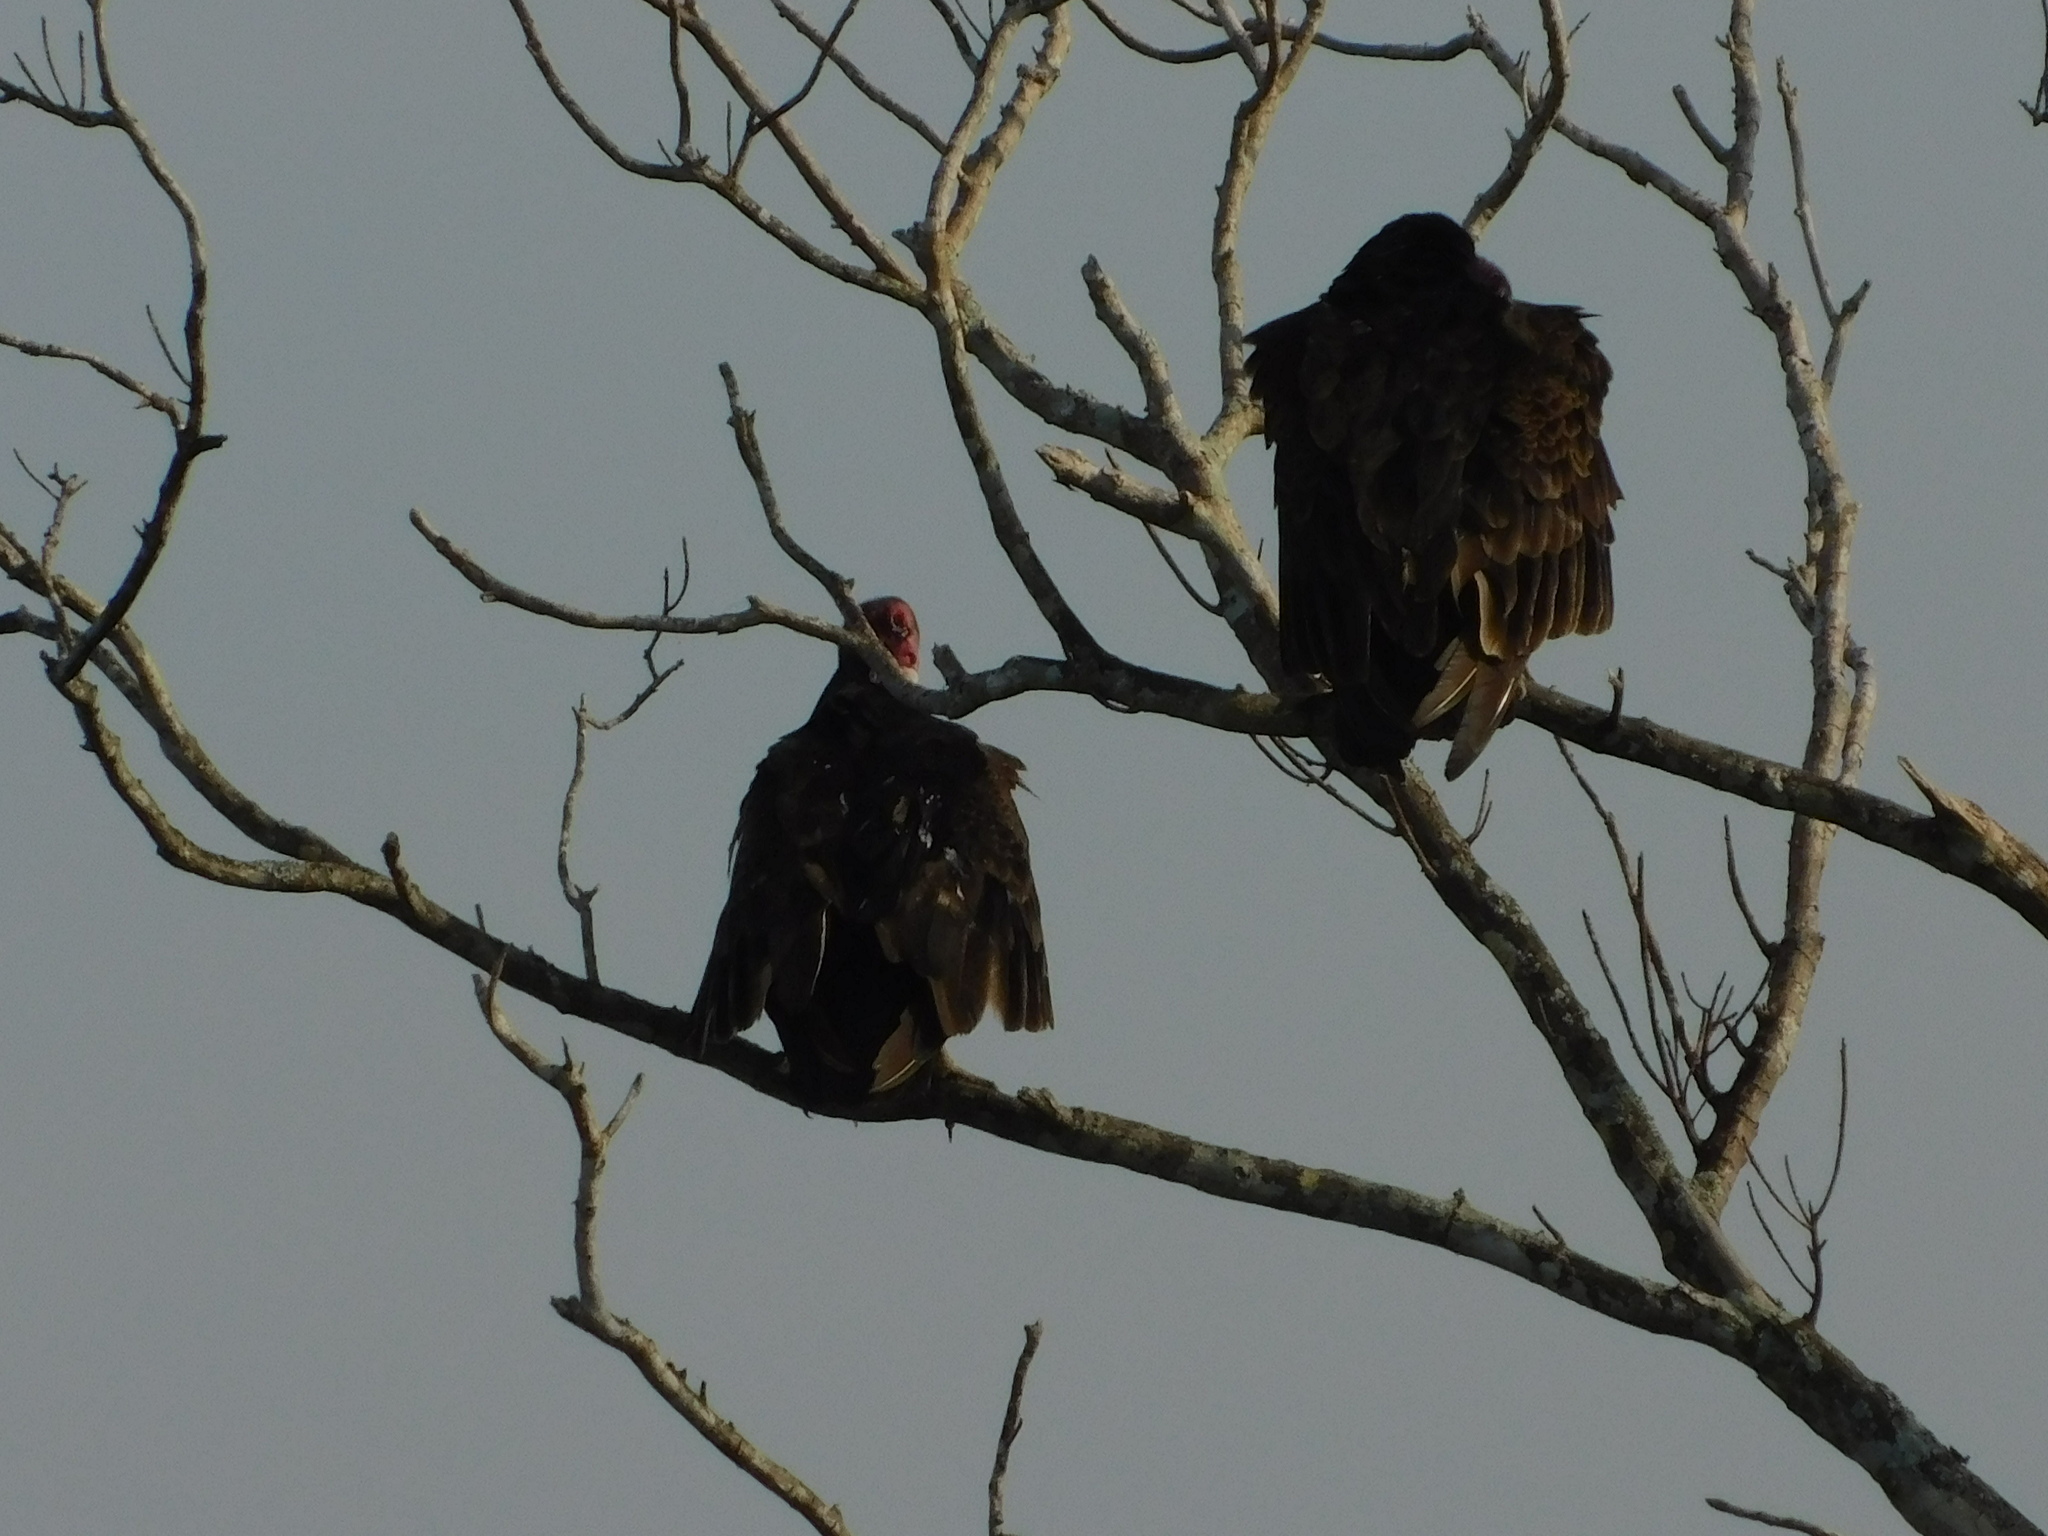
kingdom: Animalia
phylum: Chordata
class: Aves
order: Accipitriformes
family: Cathartidae
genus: Cathartes
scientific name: Cathartes aura
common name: Turkey vulture
